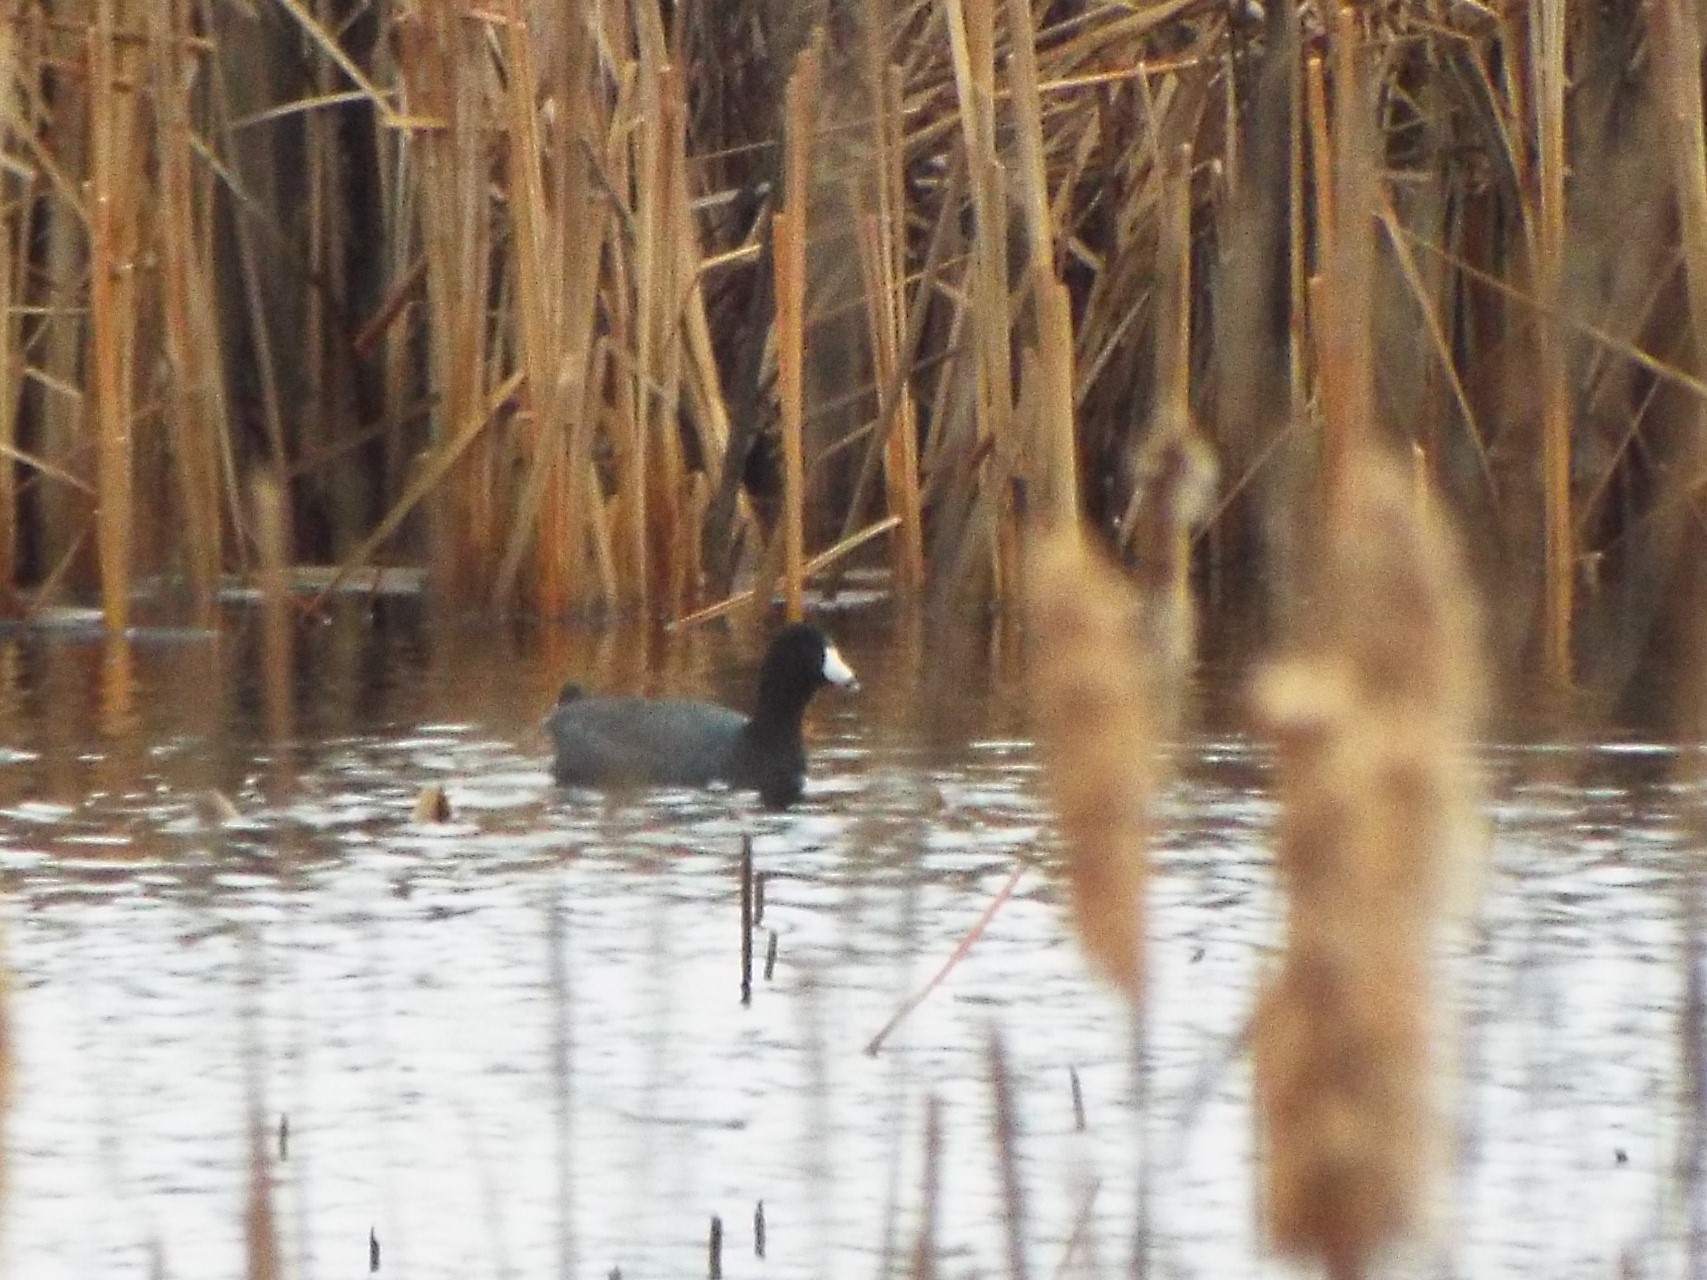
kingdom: Animalia
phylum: Chordata
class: Aves
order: Gruiformes
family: Rallidae
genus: Fulica
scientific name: Fulica americana
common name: American coot
